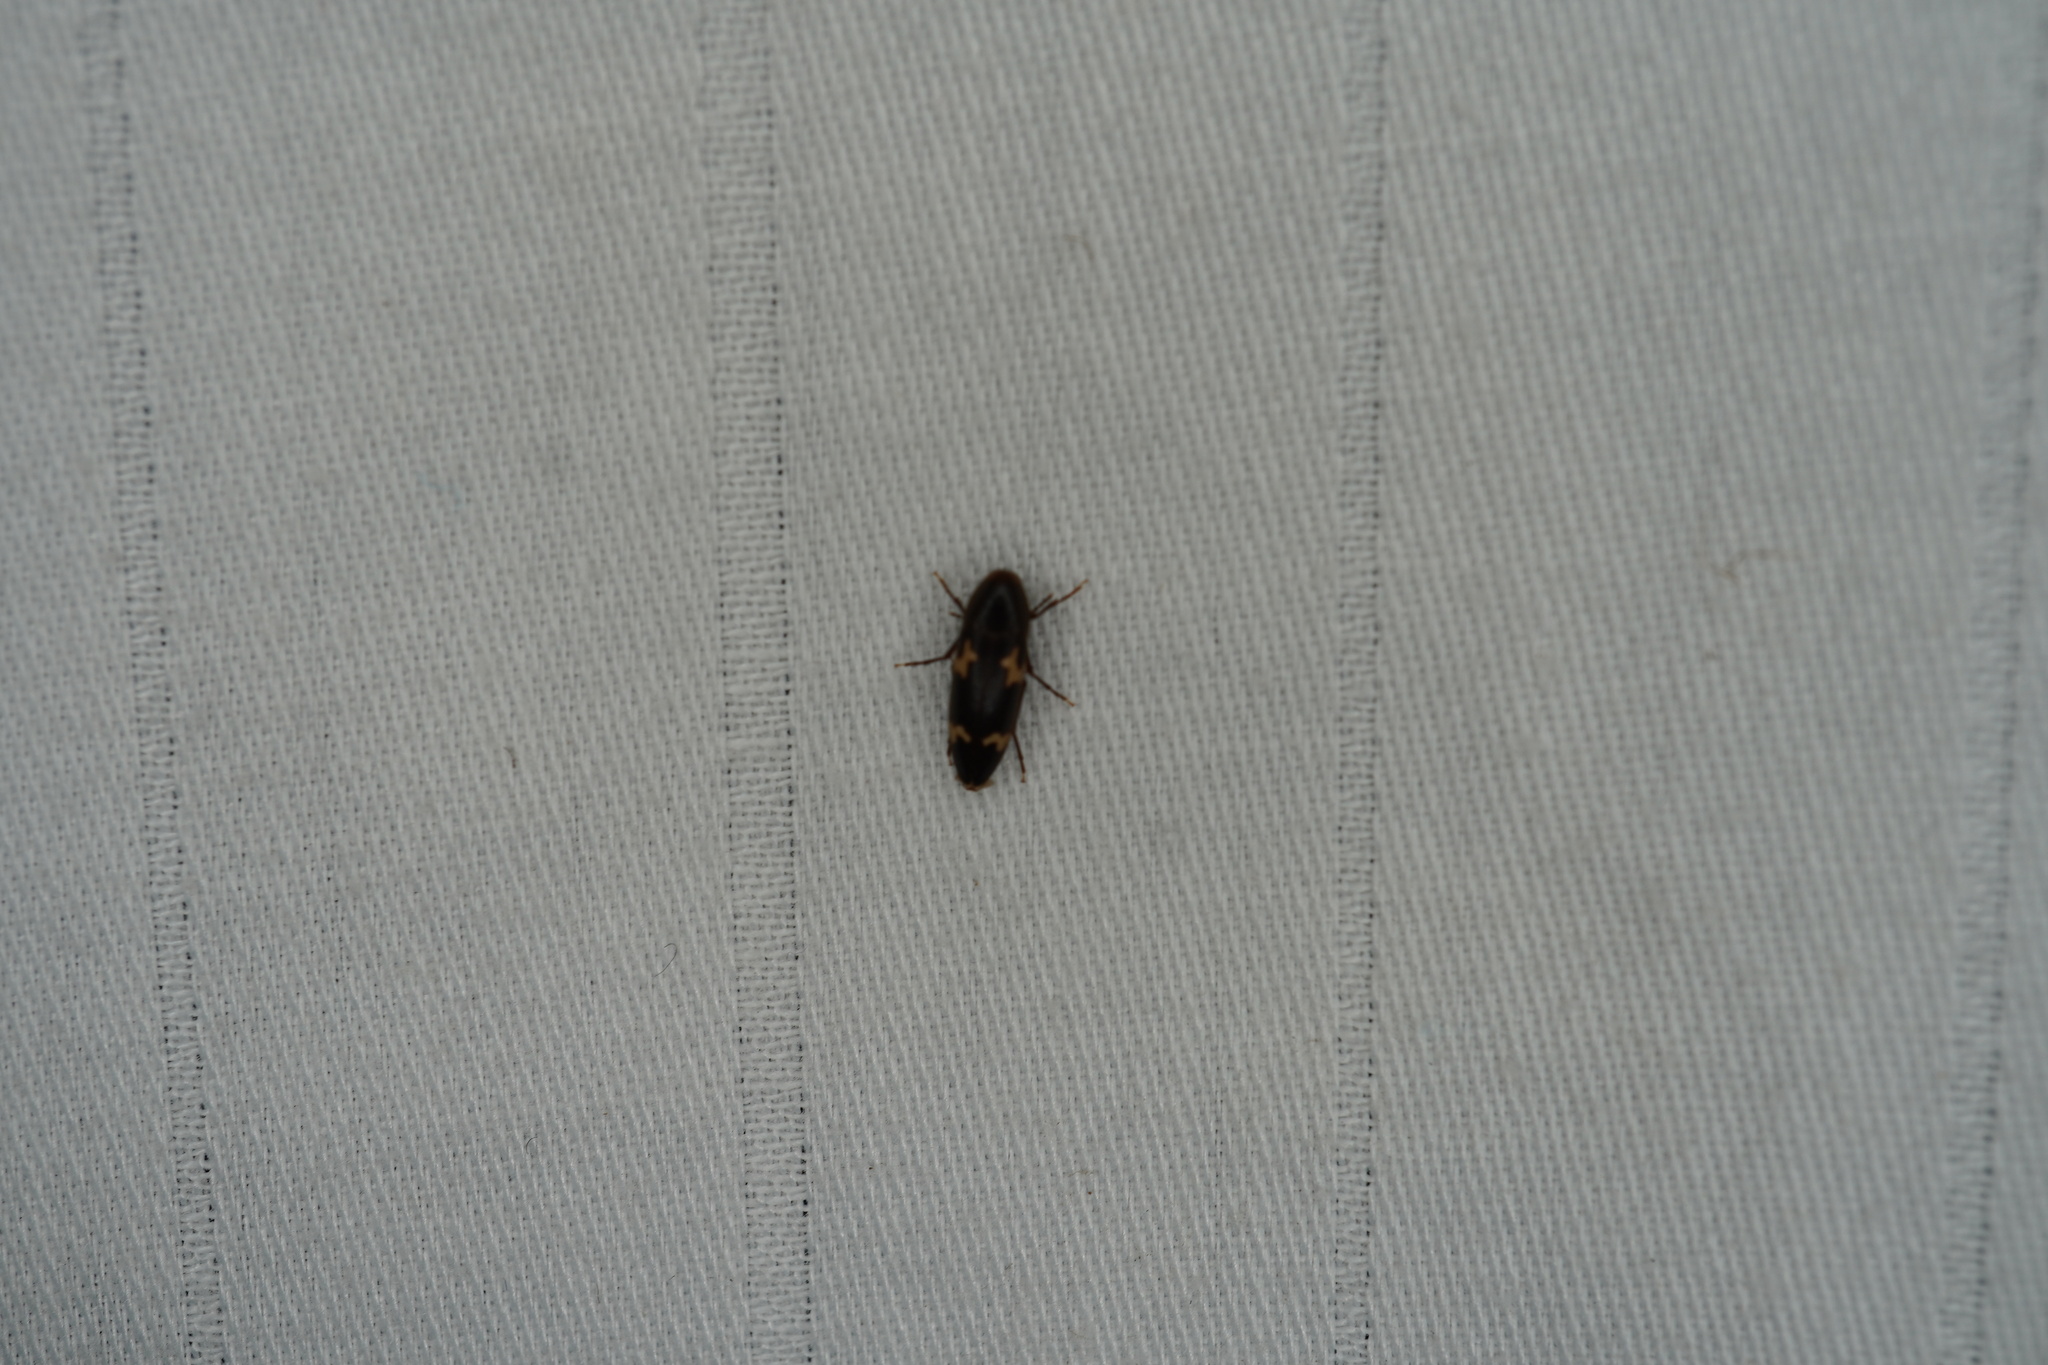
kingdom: Animalia
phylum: Arthropoda
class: Insecta
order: Coleoptera
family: Melandryidae
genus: Dircaea
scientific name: Dircaea liturata
